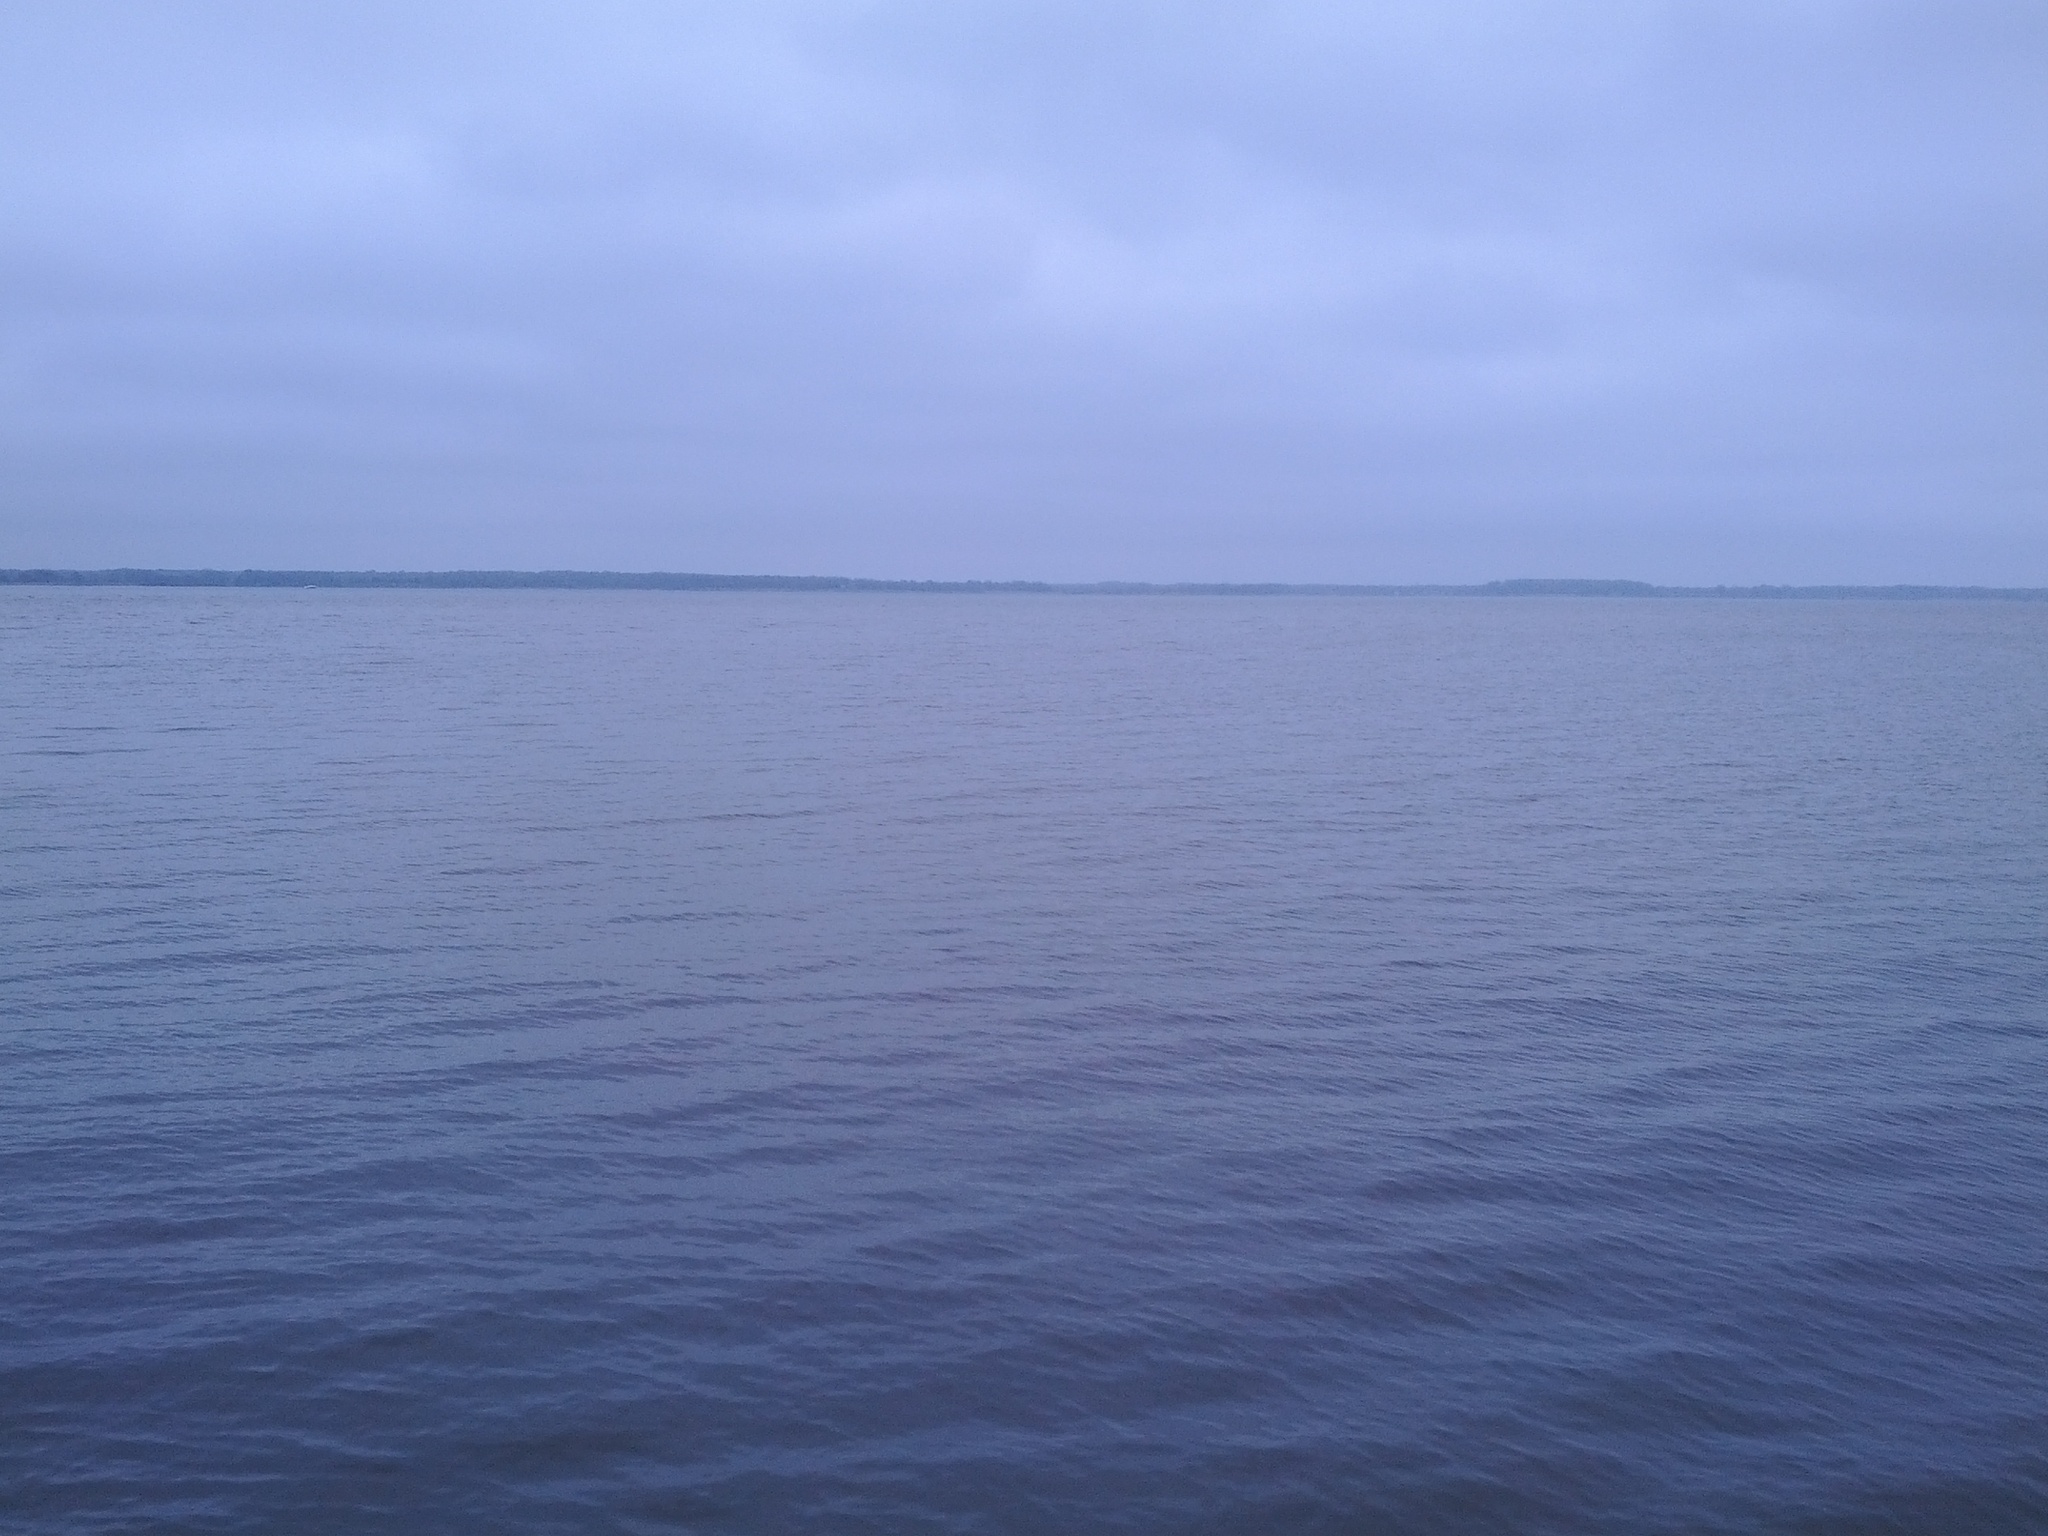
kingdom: Animalia
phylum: Chordata
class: Aves
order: Anseriformes
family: Anatidae
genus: Bucephala
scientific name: Bucephala albeola
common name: Bufflehead
